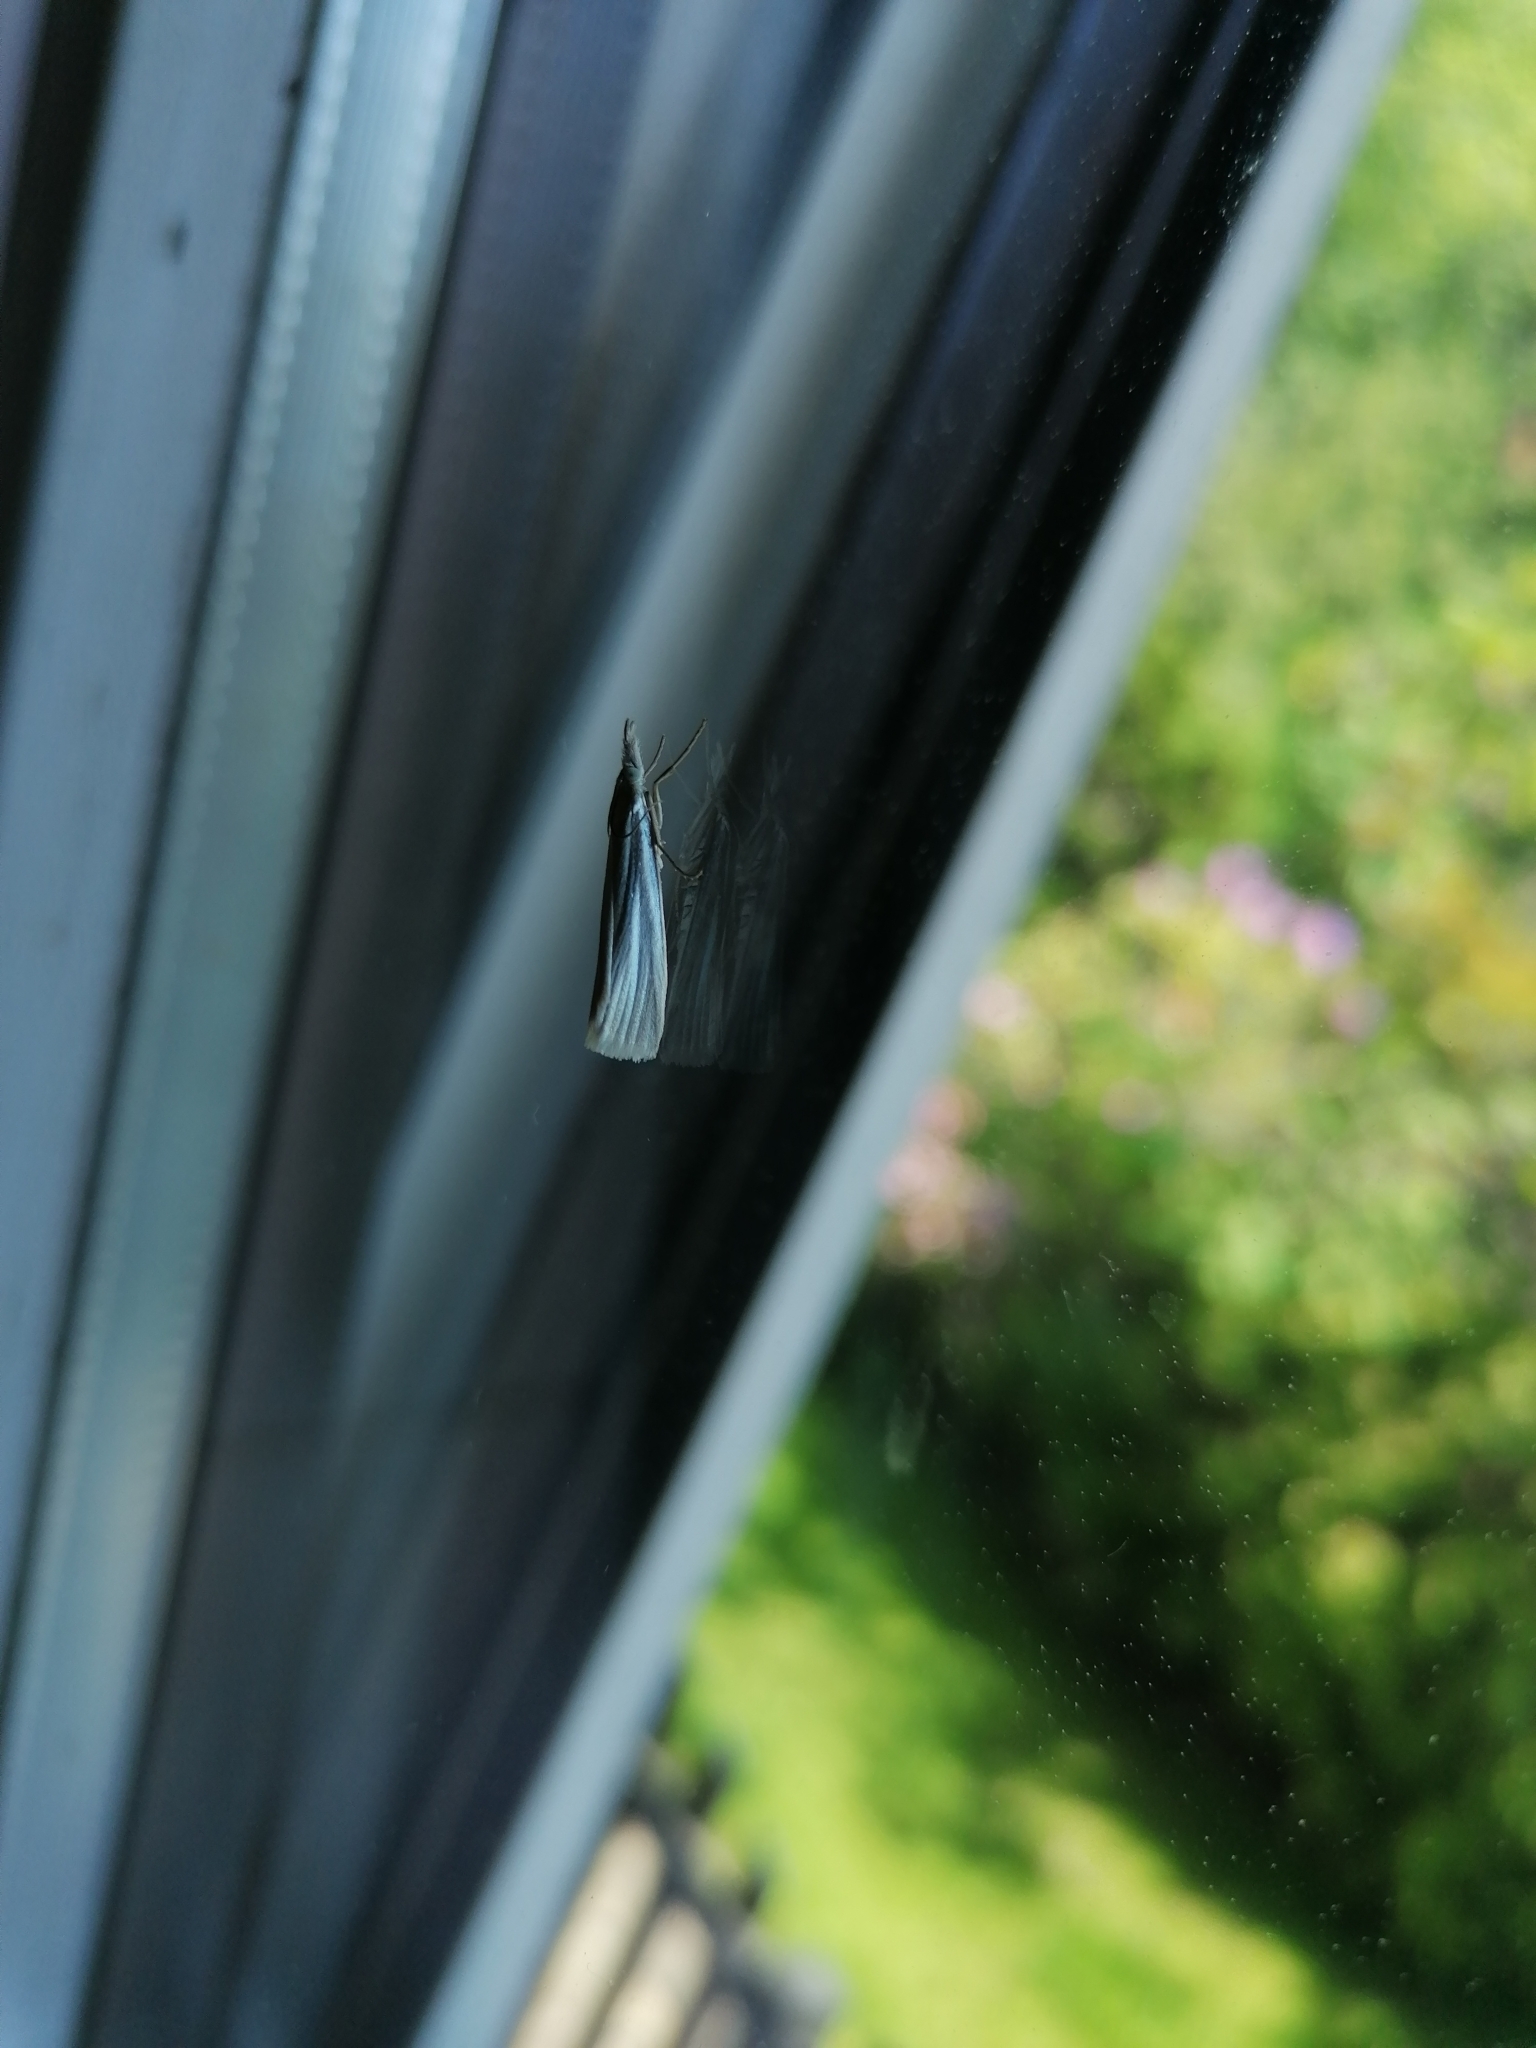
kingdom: Animalia
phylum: Arthropoda
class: Insecta
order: Lepidoptera
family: Crambidae
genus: Crambus
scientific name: Crambus perlellus
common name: Yellow satin veneer
